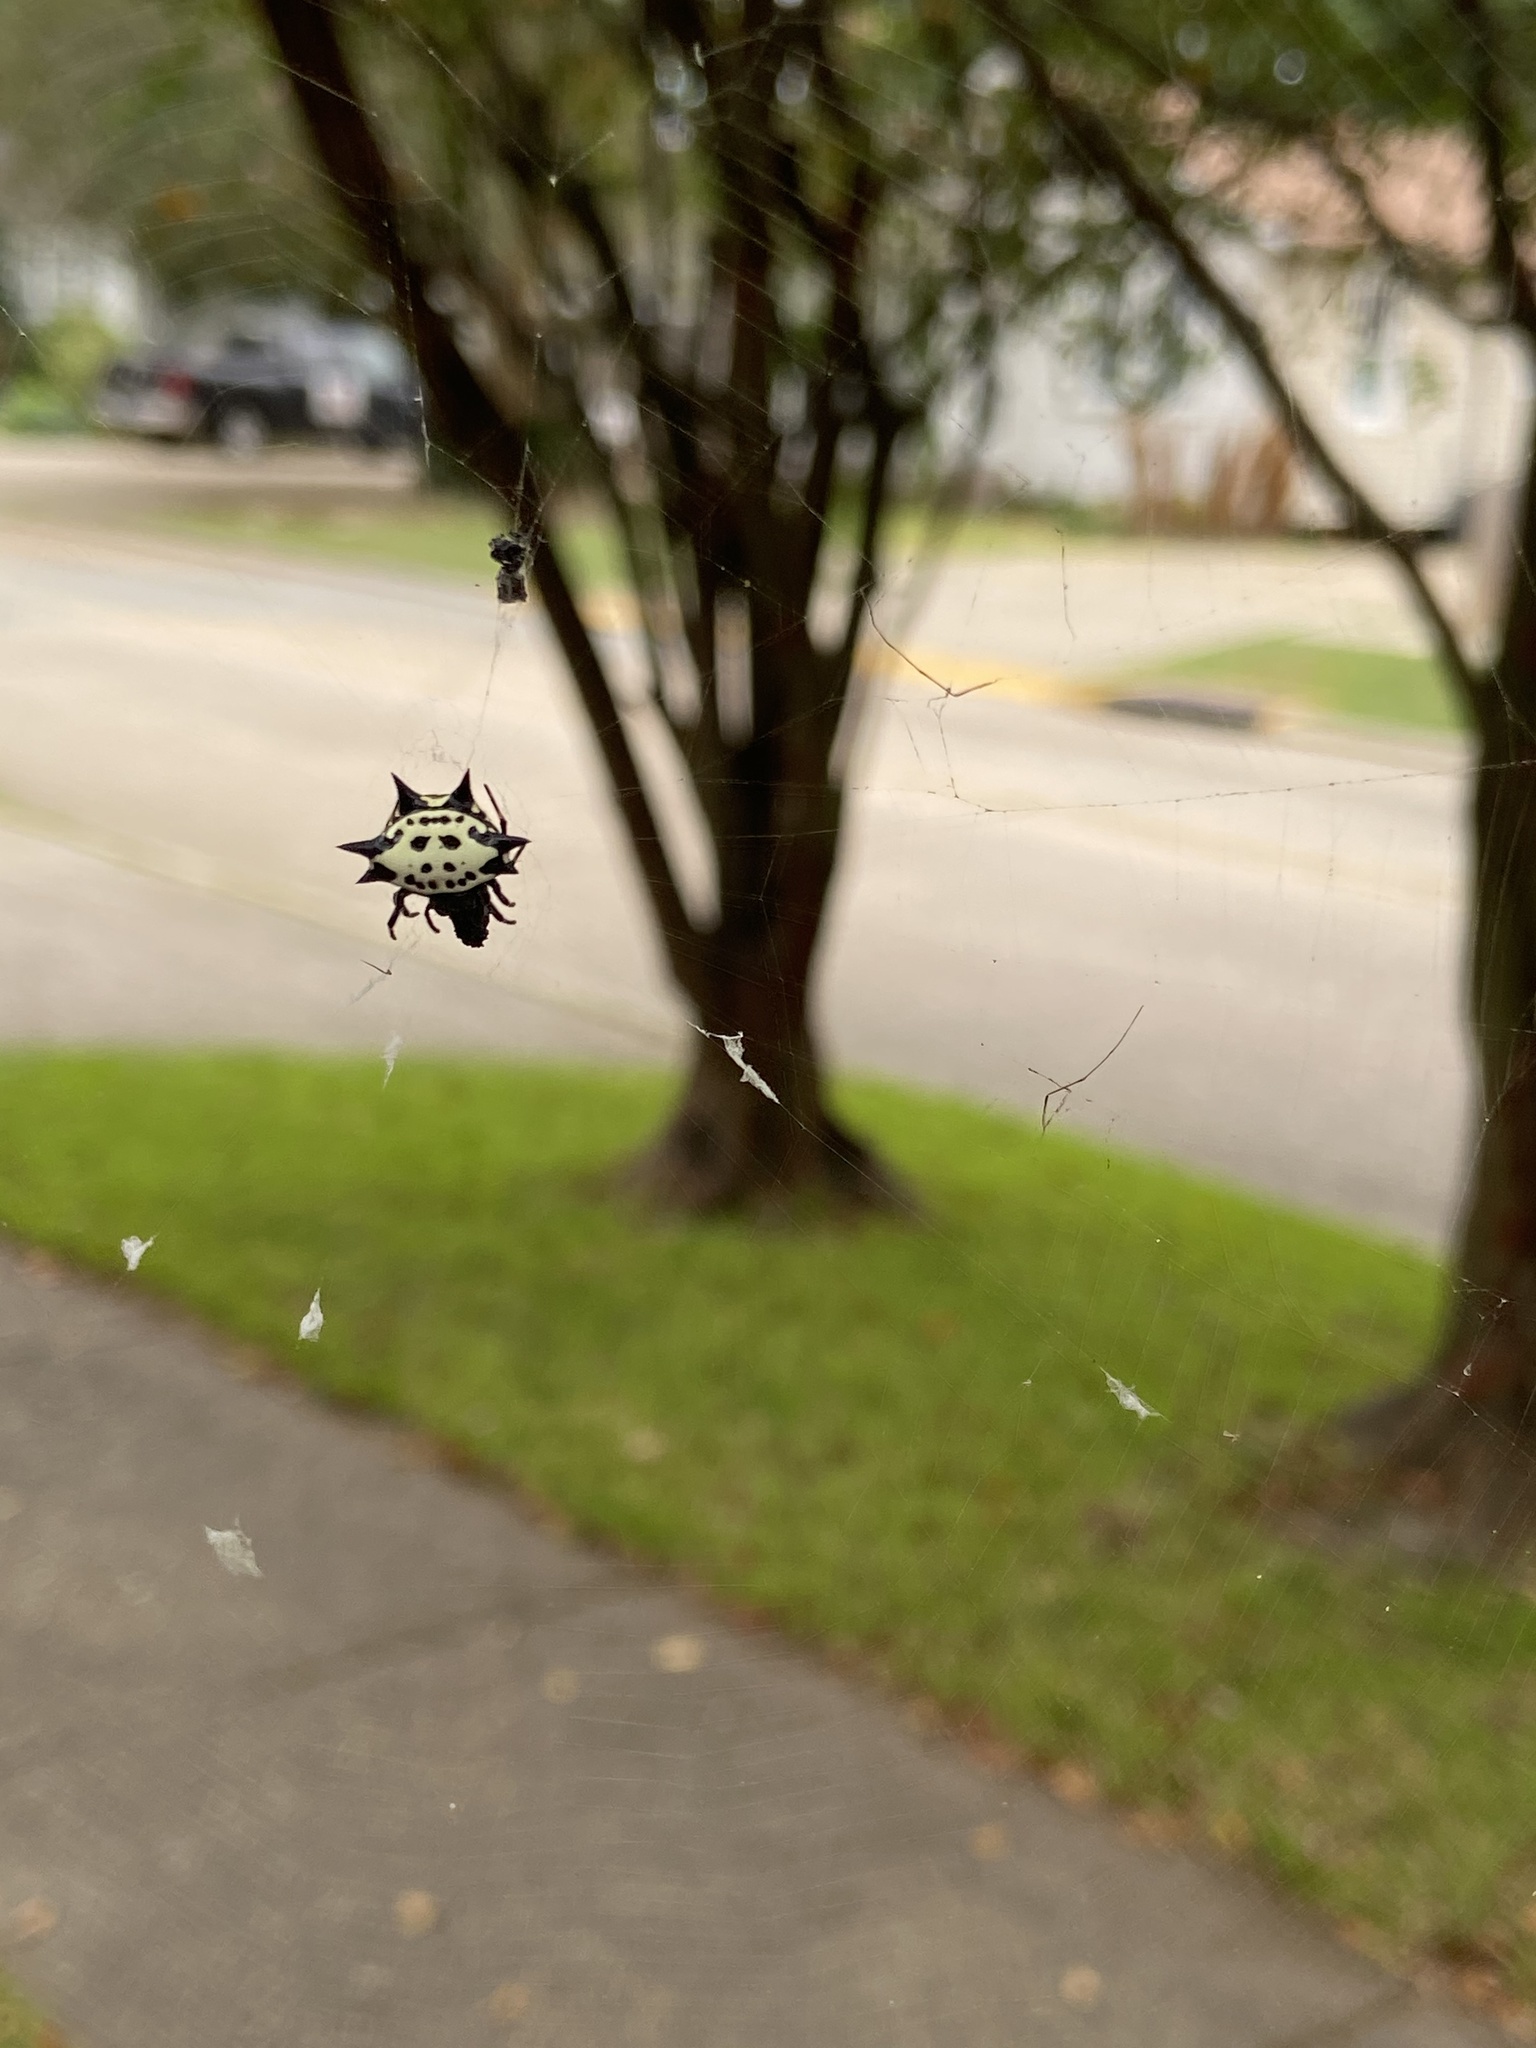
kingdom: Animalia
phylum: Arthropoda
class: Arachnida
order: Araneae
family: Araneidae
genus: Gasteracantha
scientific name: Gasteracantha cancriformis
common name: Orb weavers
